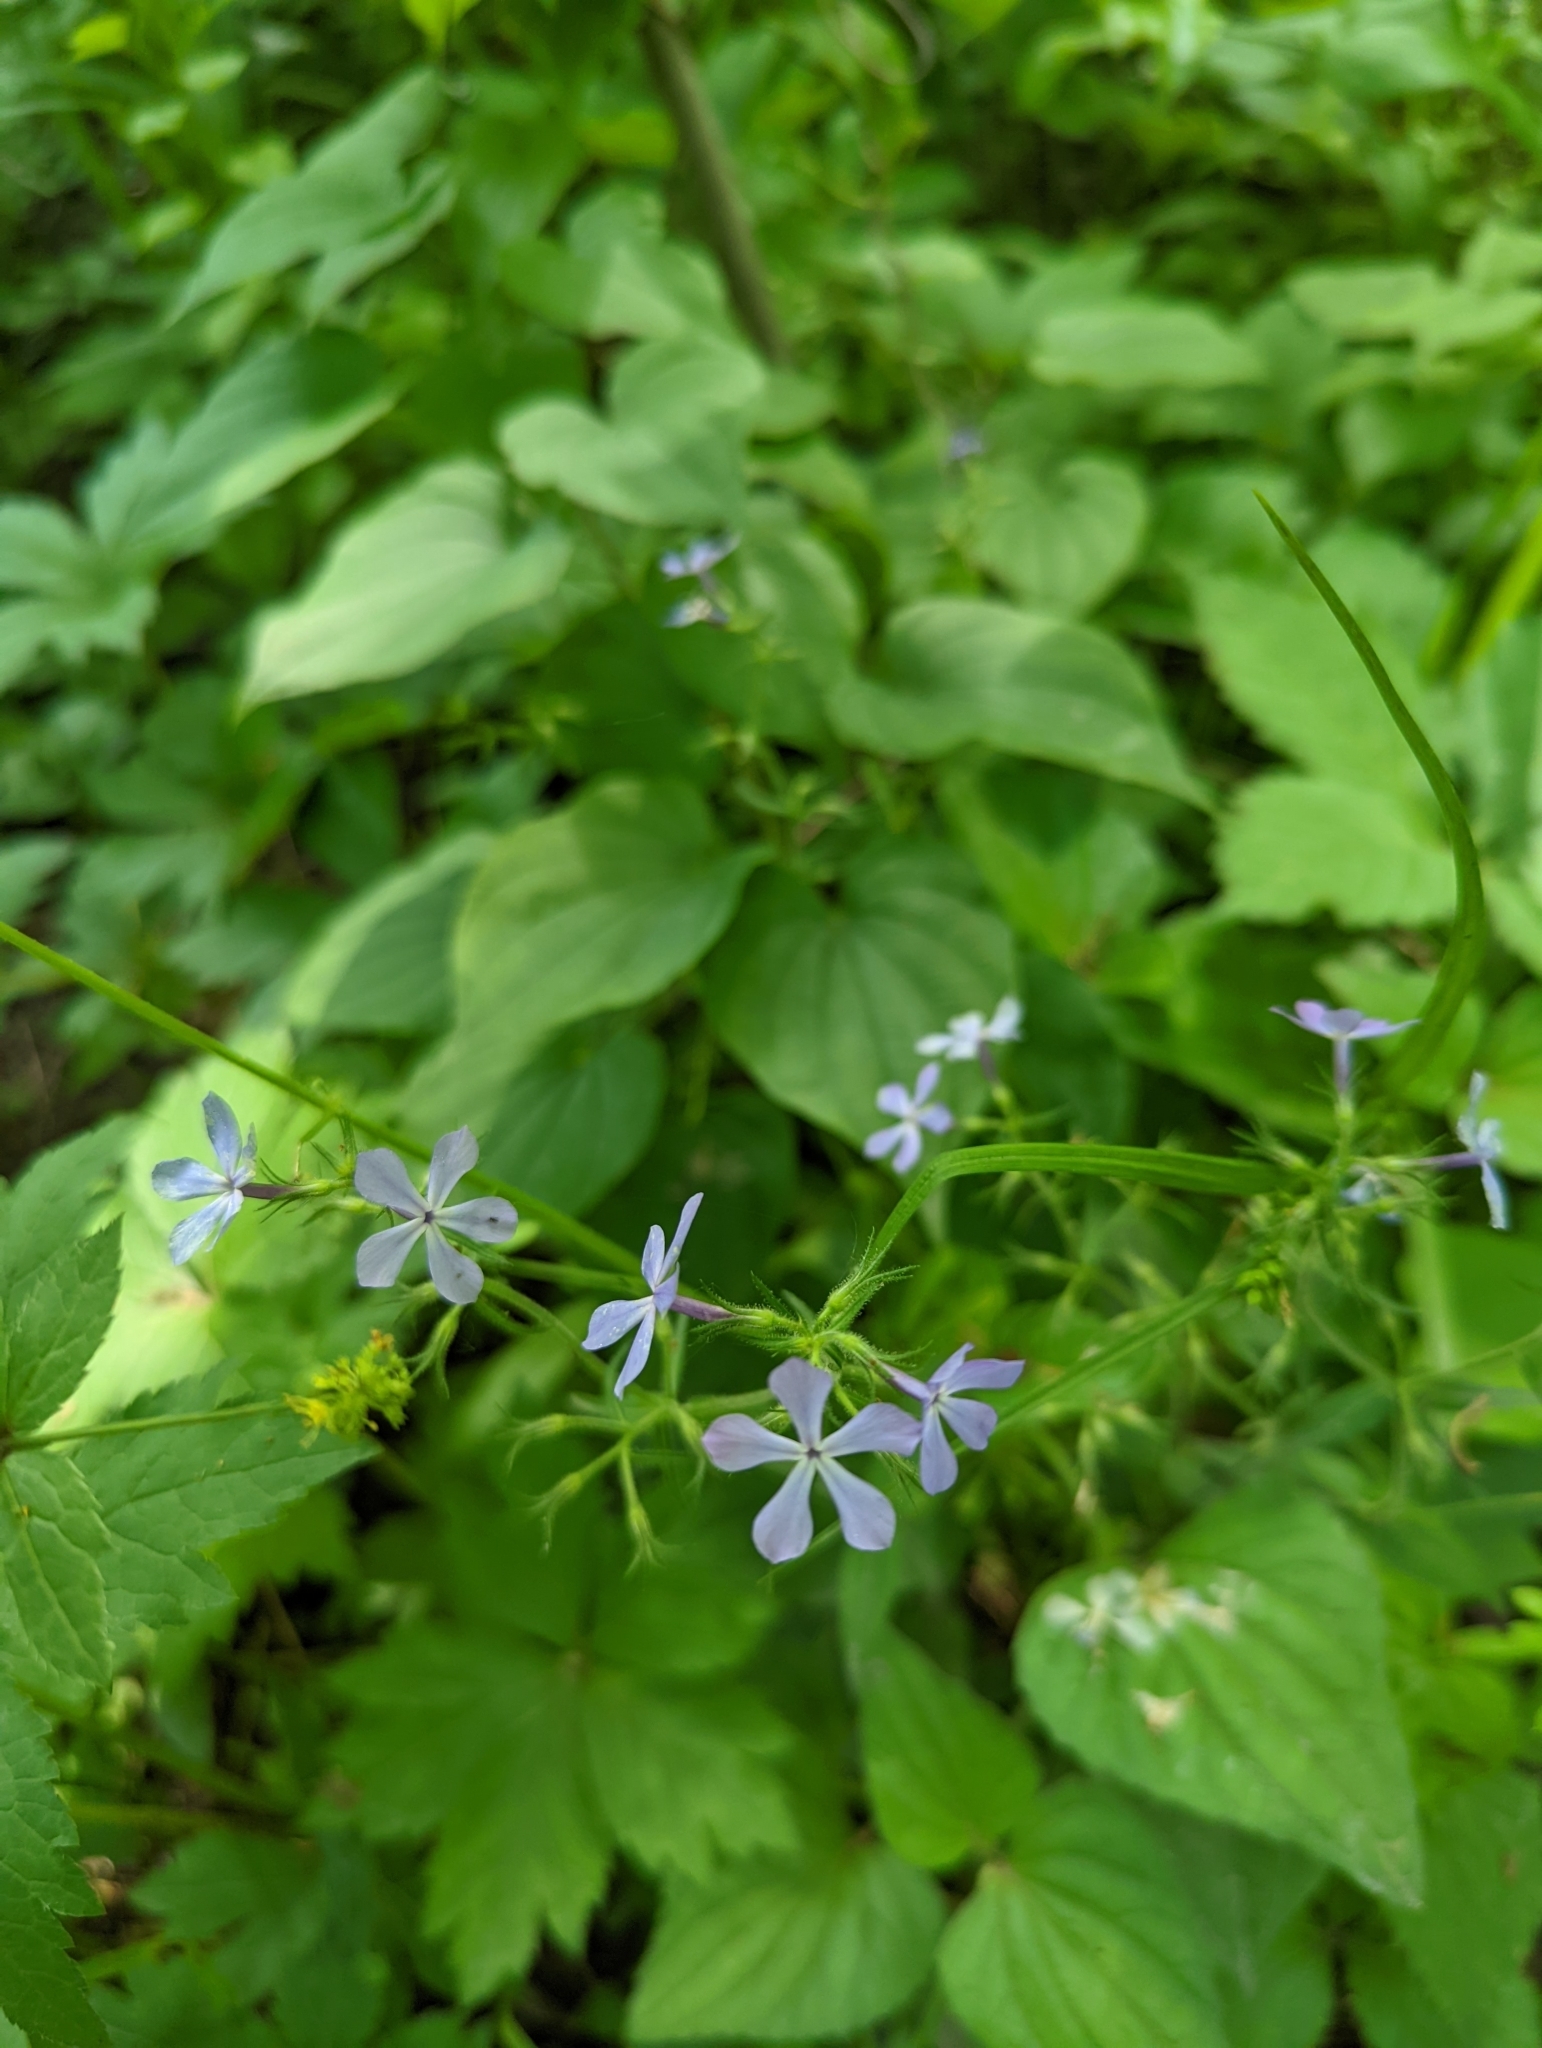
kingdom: Plantae
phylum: Tracheophyta
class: Magnoliopsida
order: Ericales
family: Polemoniaceae
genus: Phlox
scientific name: Phlox divaricata
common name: Blue phlox
